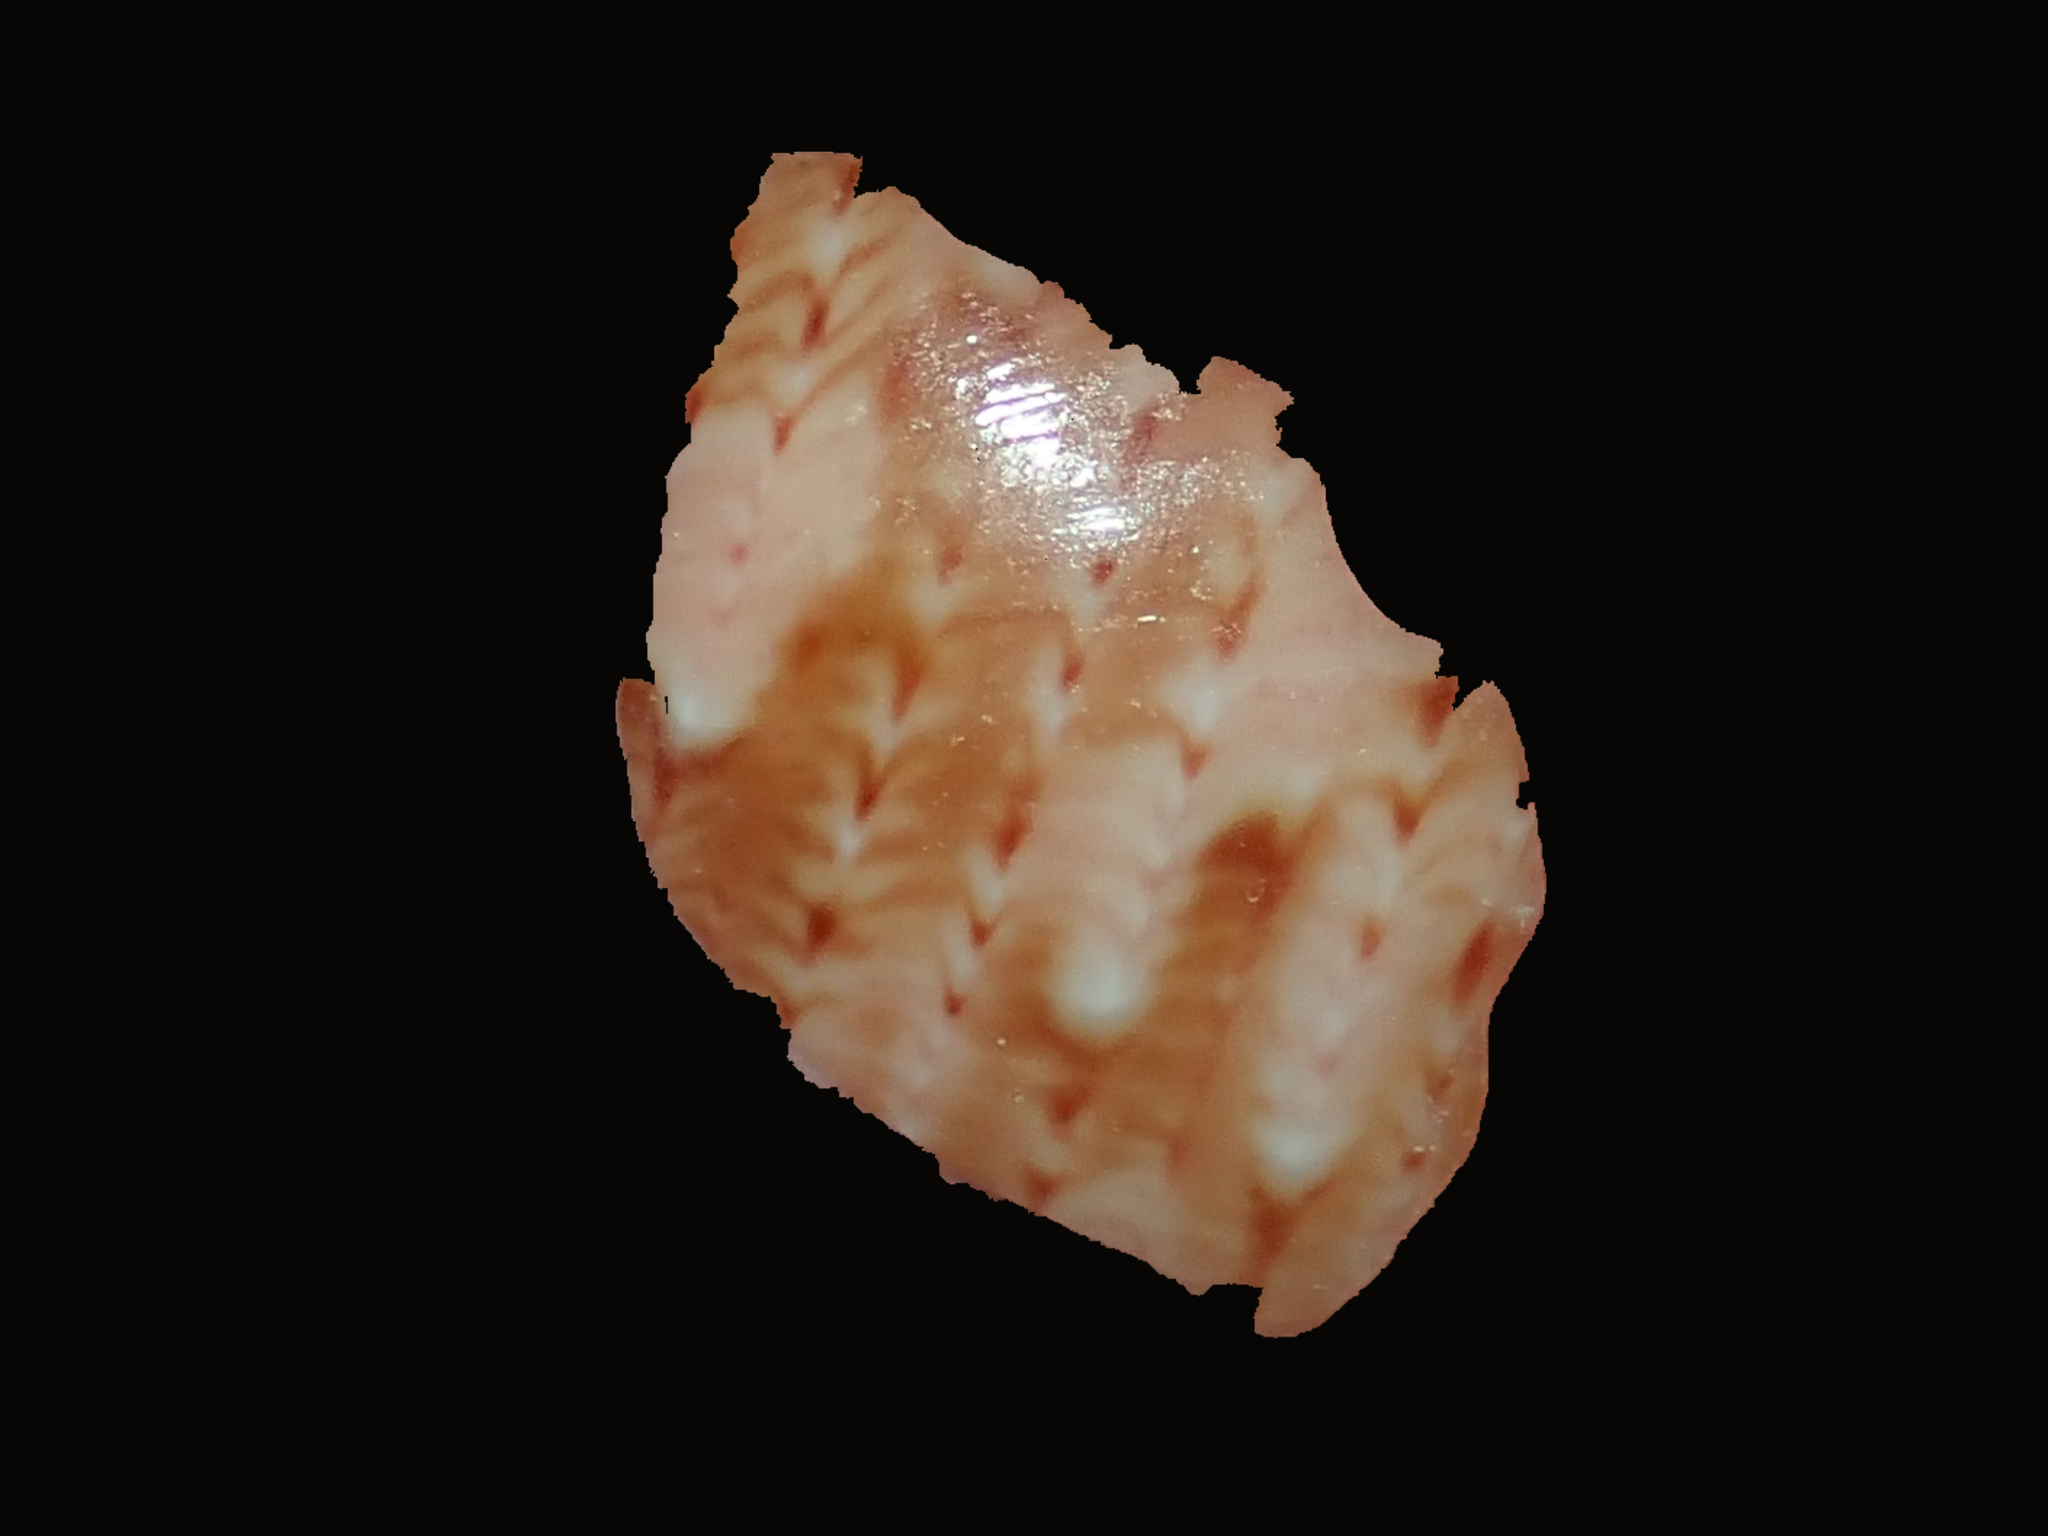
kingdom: Animalia
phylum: Mollusca
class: Gastropoda
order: Trochida
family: Phasianellidae
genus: Phasianella
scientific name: Phasianella ventricosa
